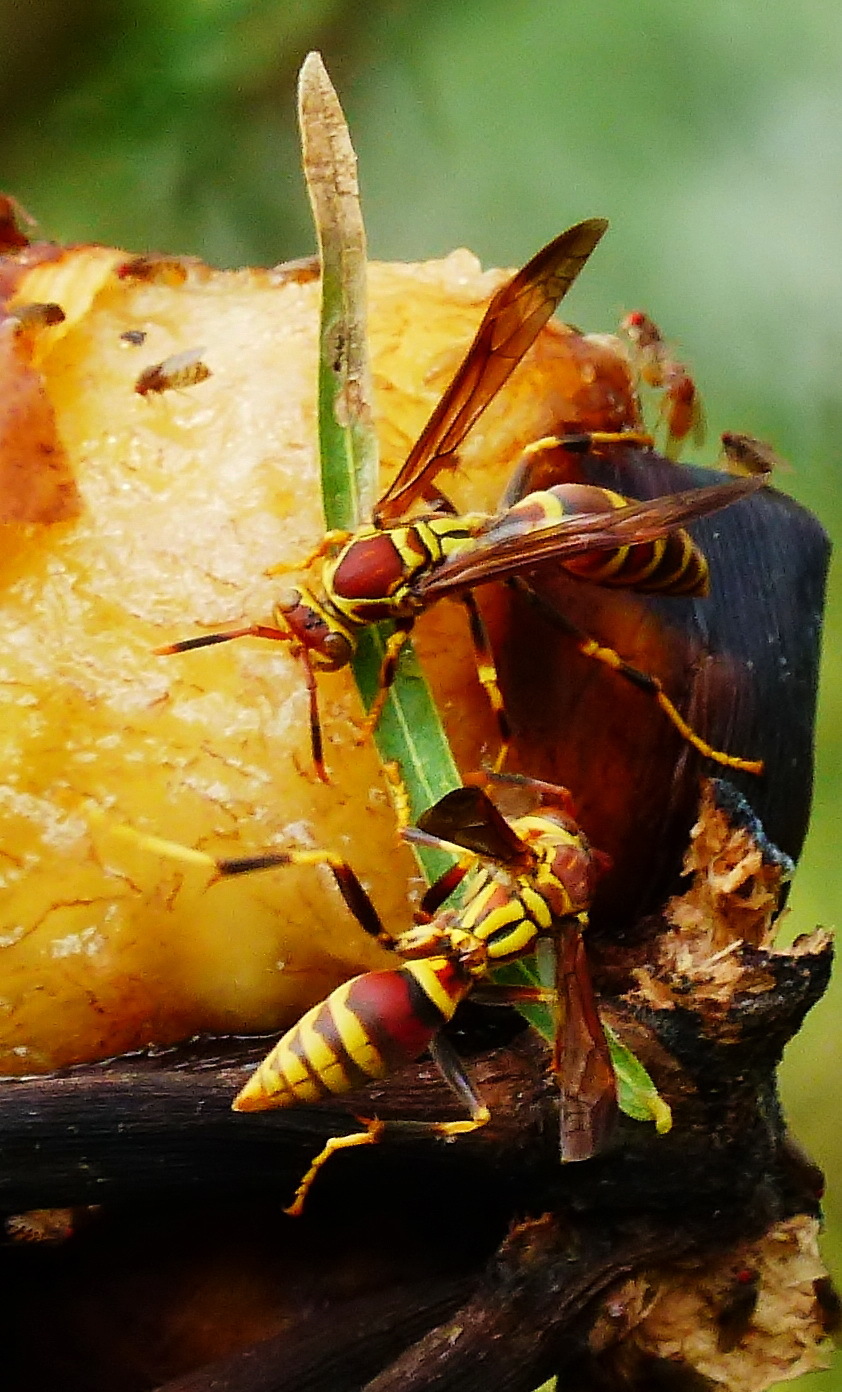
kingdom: Animalia
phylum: Arthropoda
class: Insecta
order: Hymenoptera
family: Eumenidae
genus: Polistes
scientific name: Polistes exclamans
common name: Paper wasp
